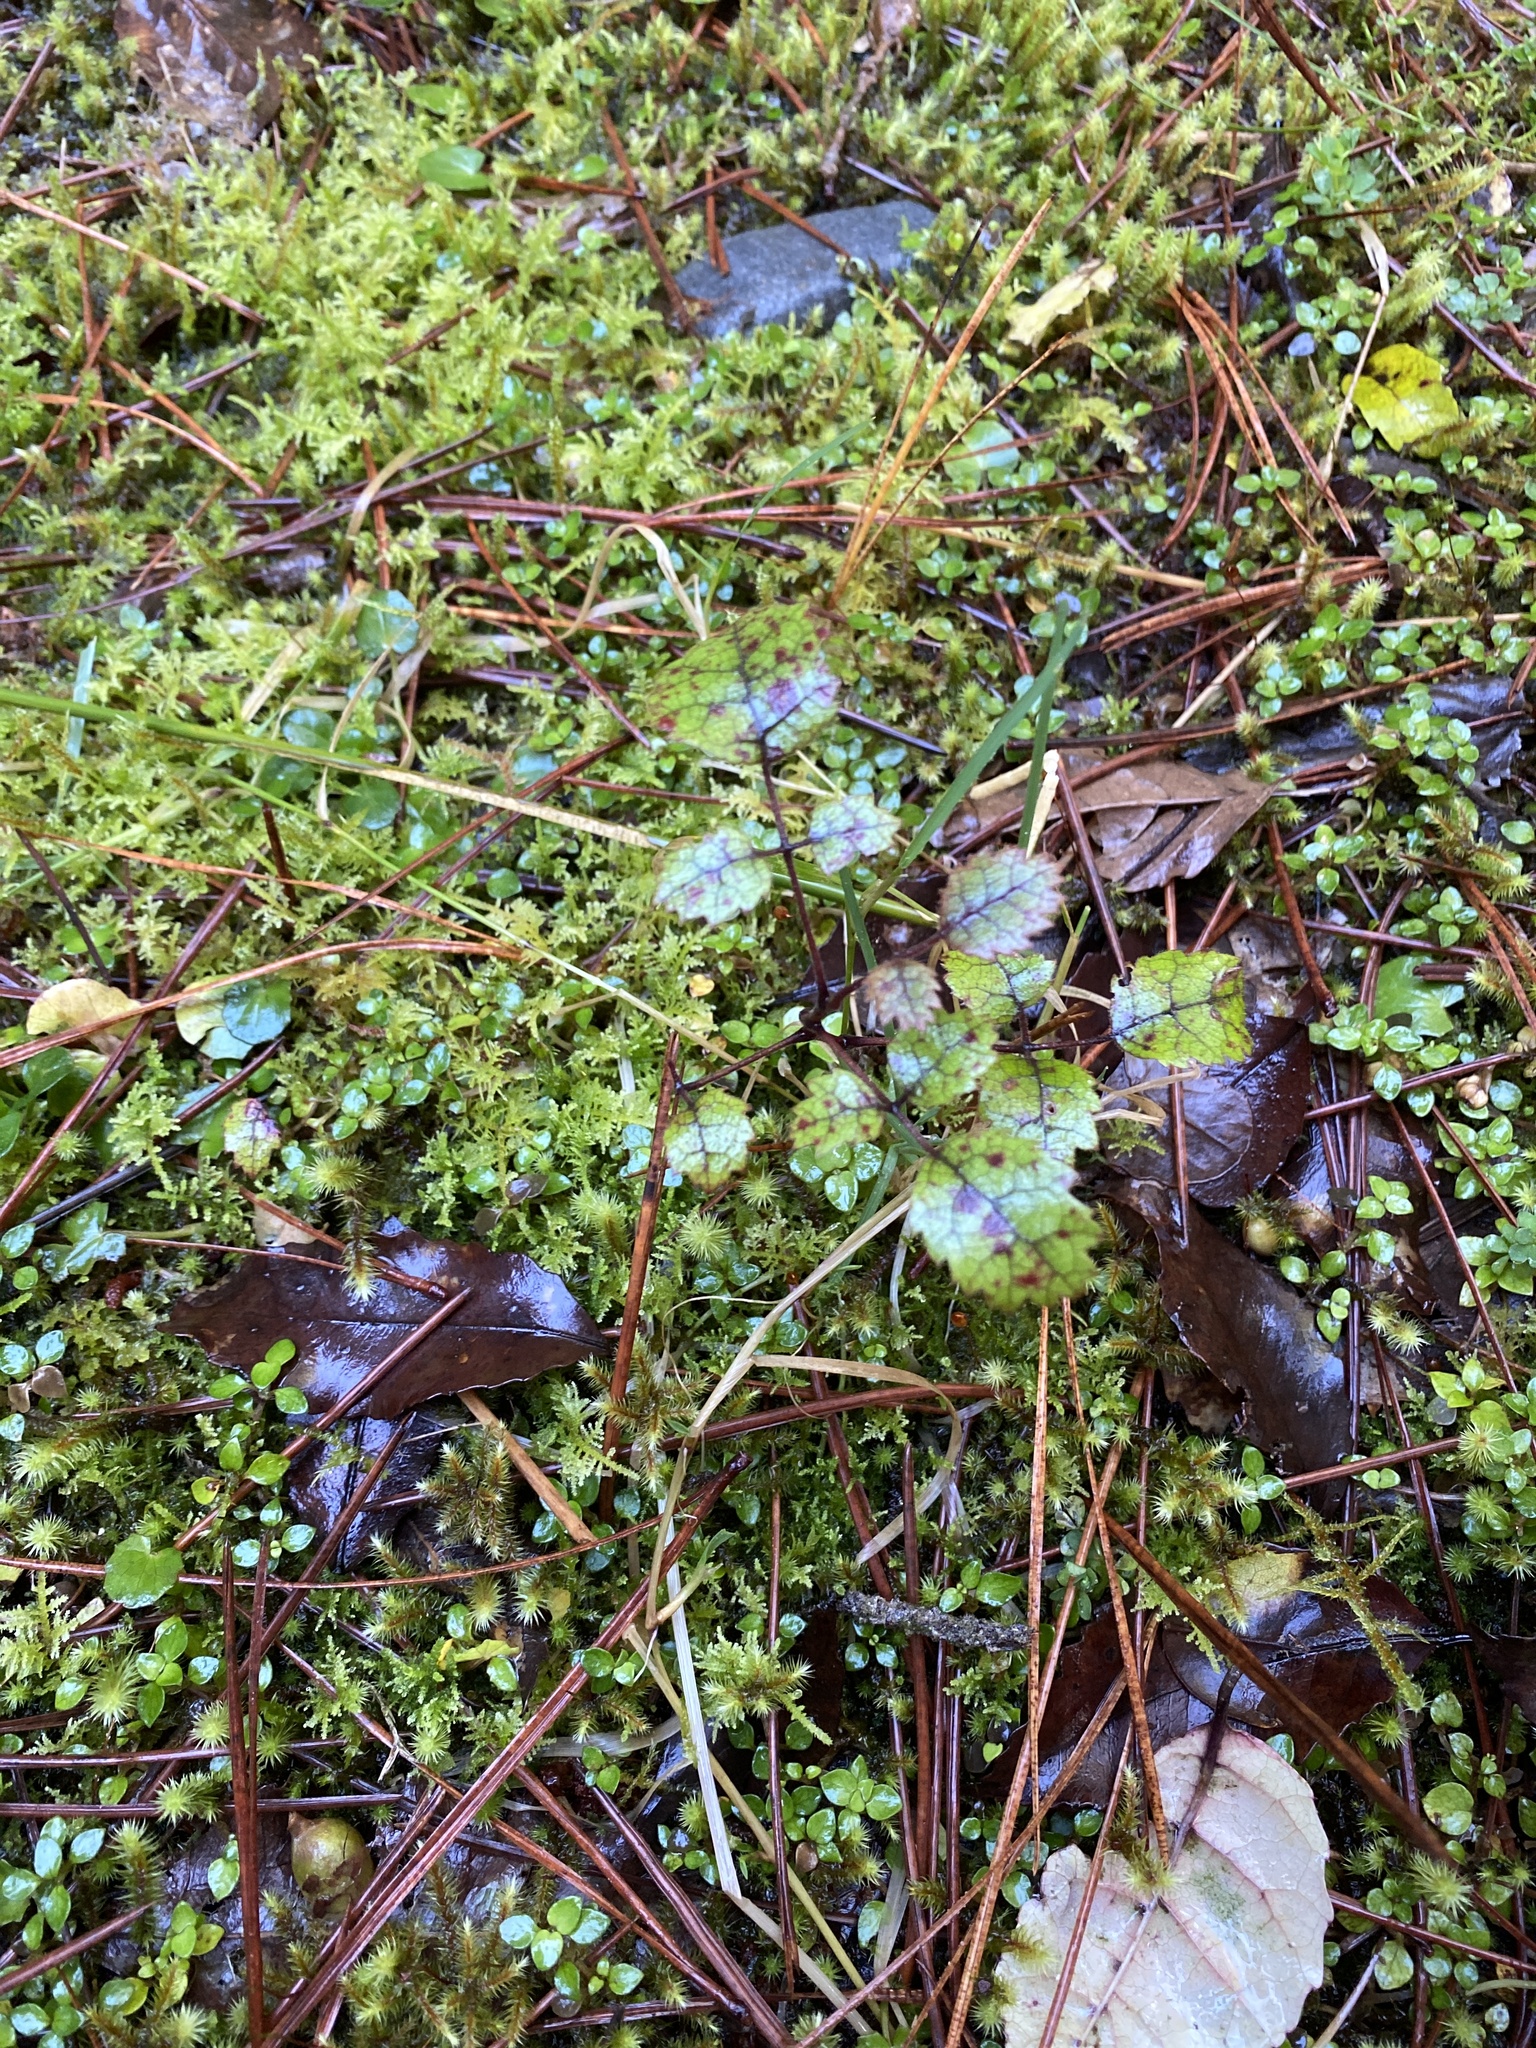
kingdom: Plantae
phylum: Tracheophyta
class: Magnoliopsida
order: Rosales
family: Rosaceae
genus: Rubus
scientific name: Rubus australis
